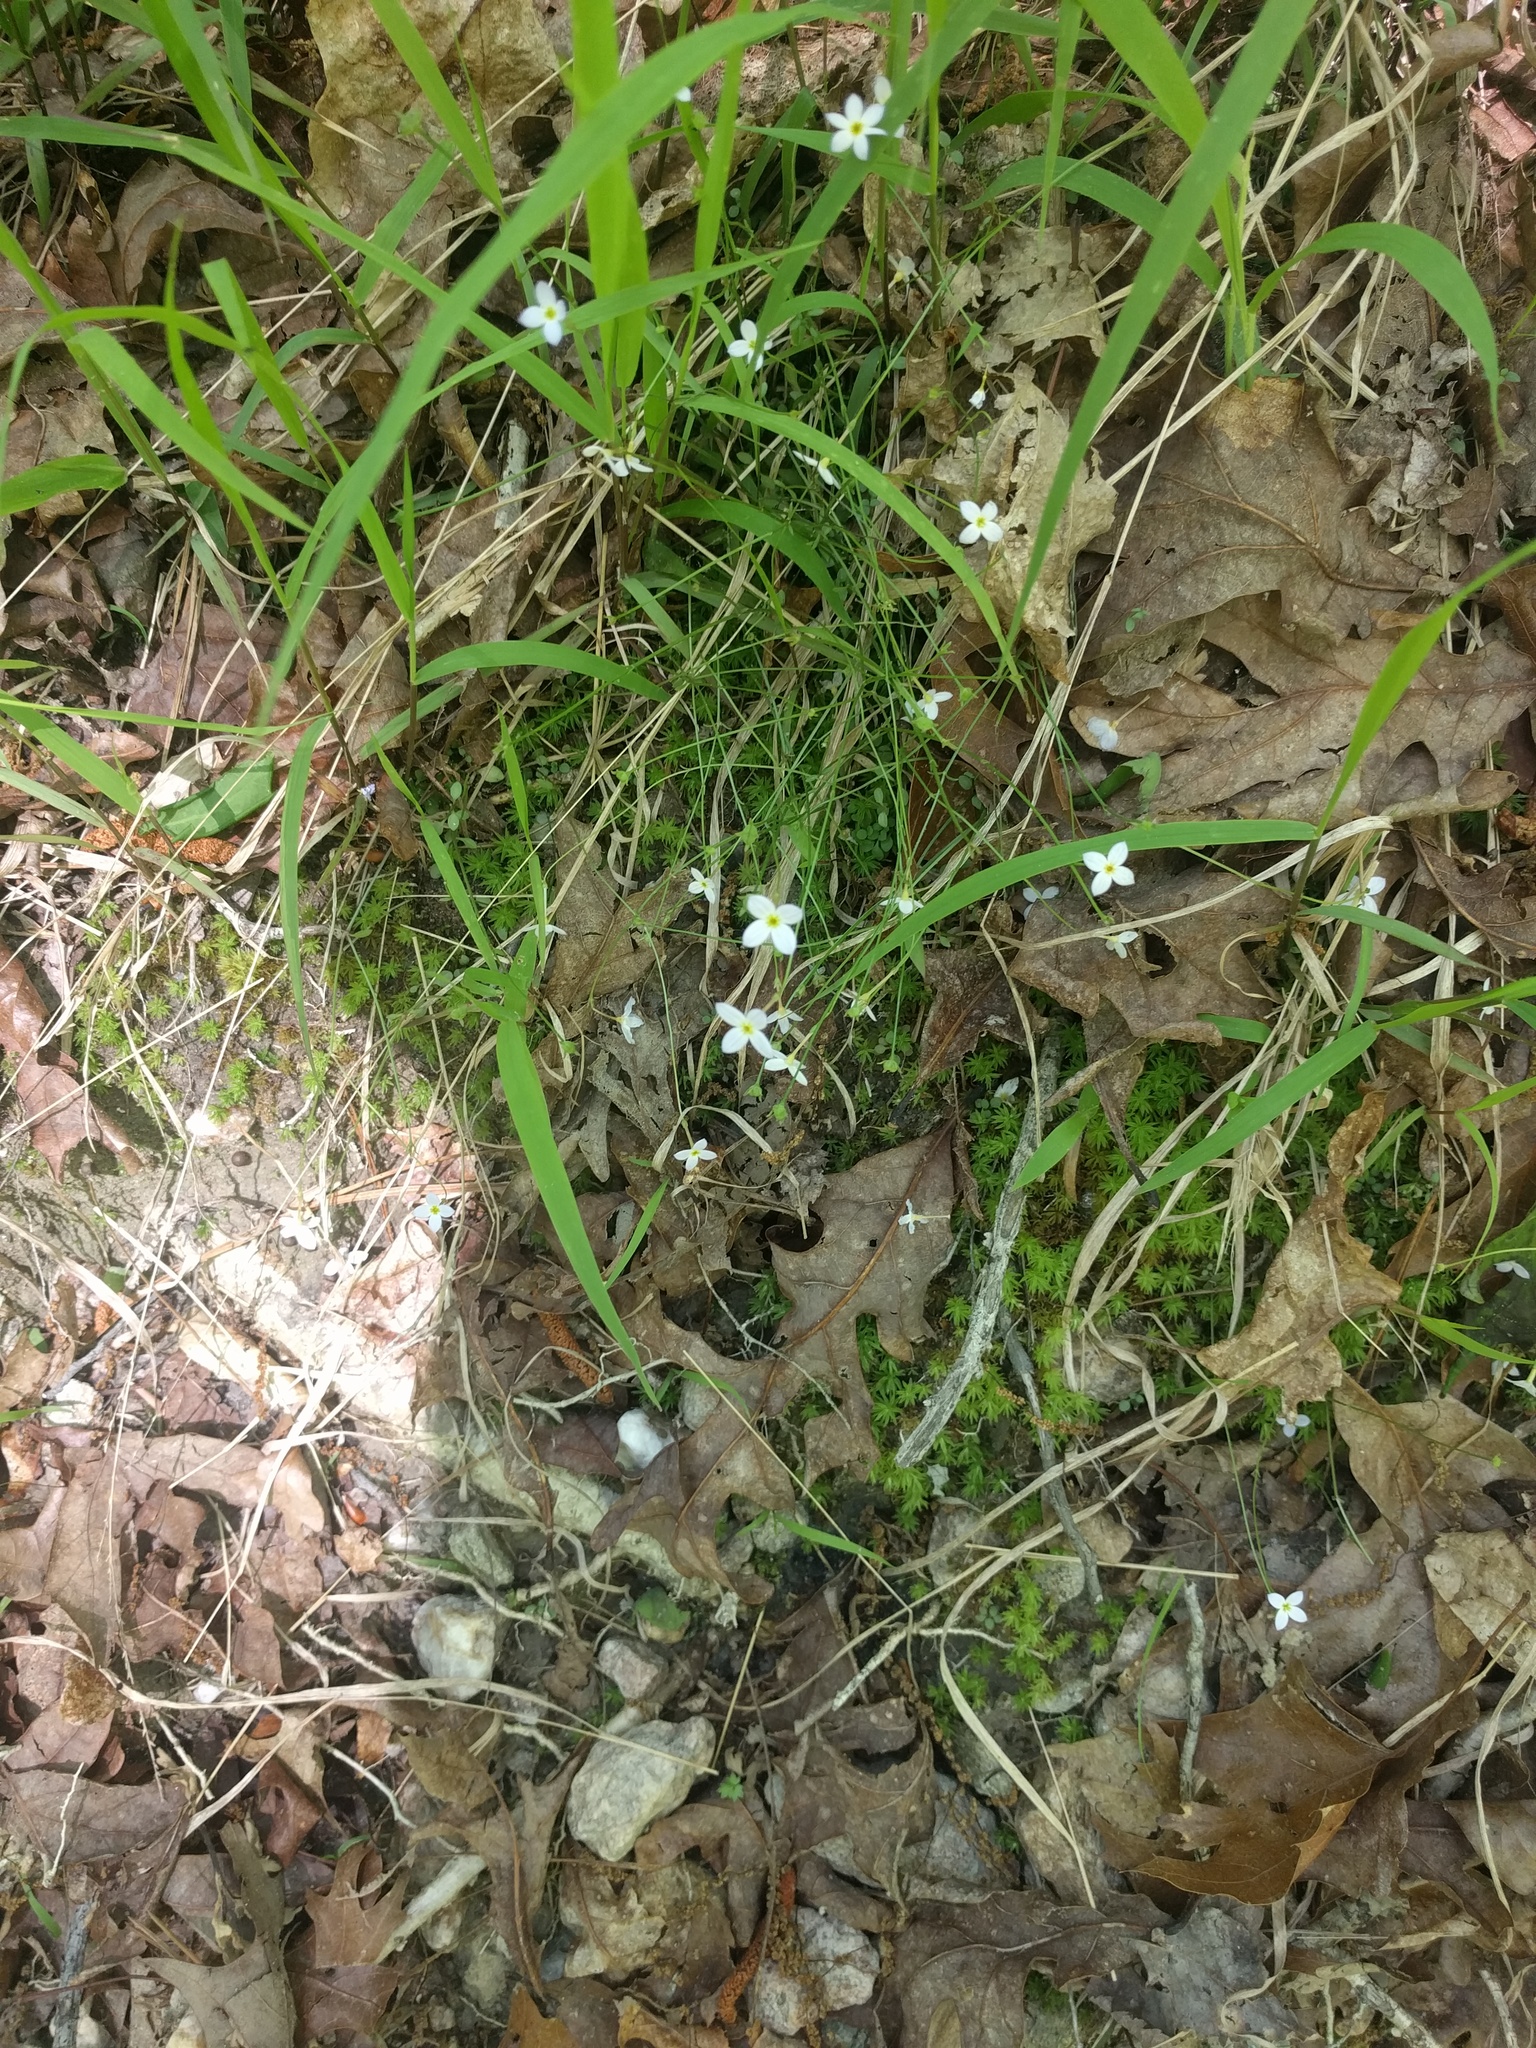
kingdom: Plantae
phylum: Tracheophyta
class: Magnoliopsida
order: Gentianales
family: Rubiaceae
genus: Houstonia
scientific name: Houstonia caerulea
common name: Bluets
